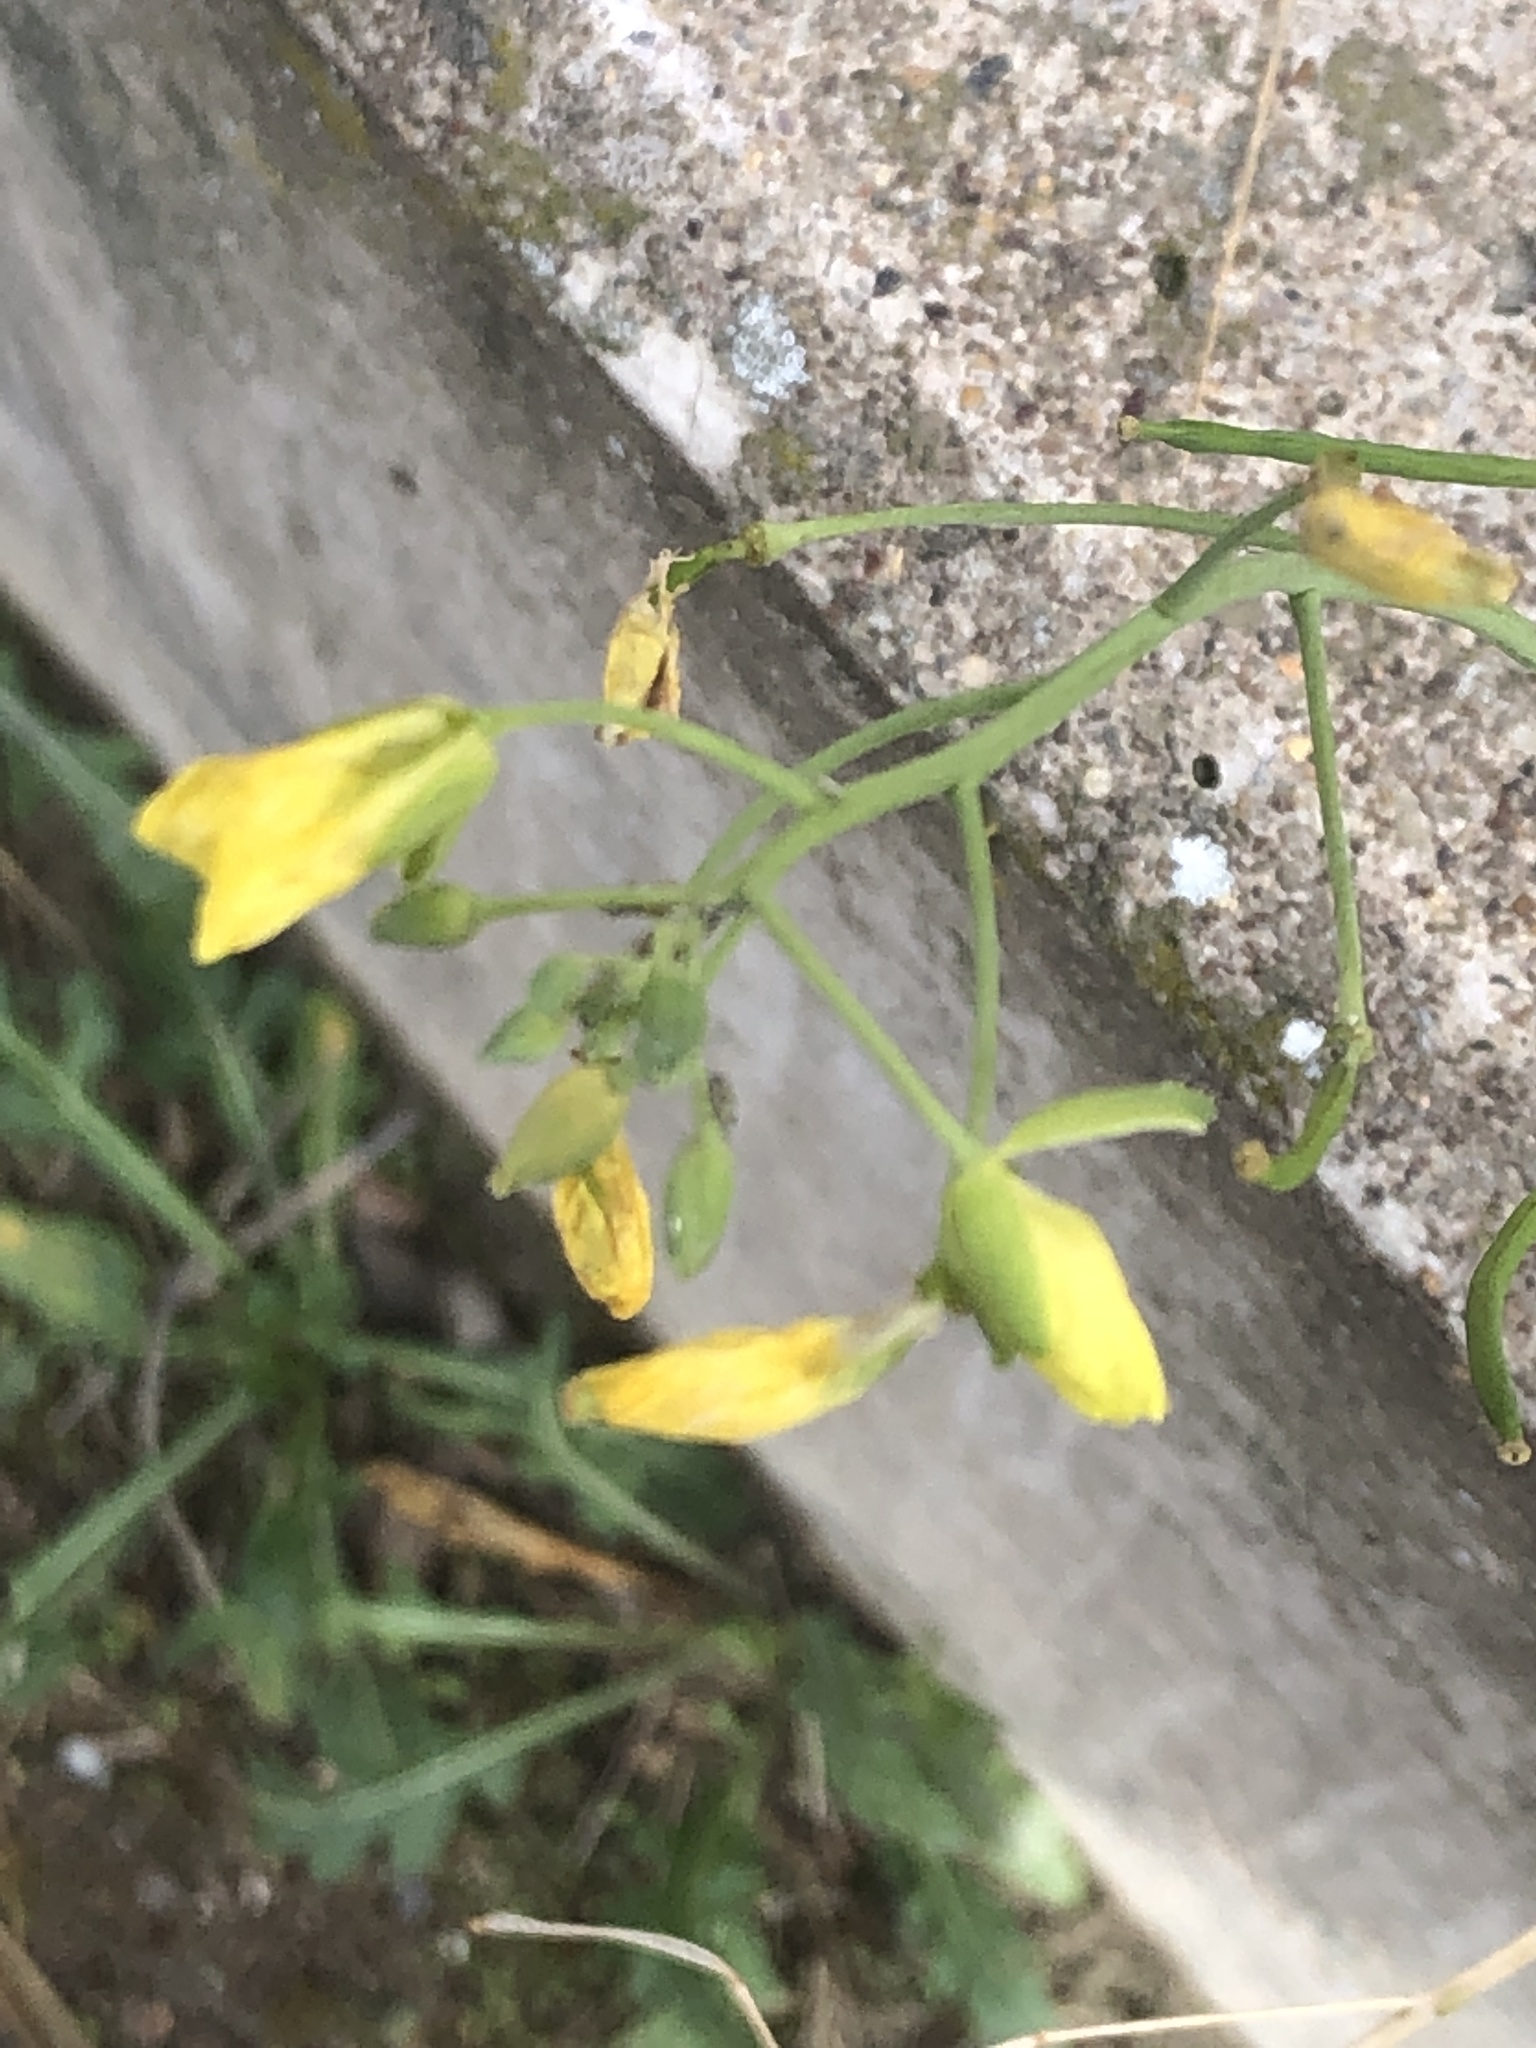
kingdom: Plantae
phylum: Tracheophyta
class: Magnoliopsida
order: Brassicales
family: Brassicaceae
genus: Diplotaxis
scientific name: Diplotaxis tenuifolia
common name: Perennial wall-rocket
